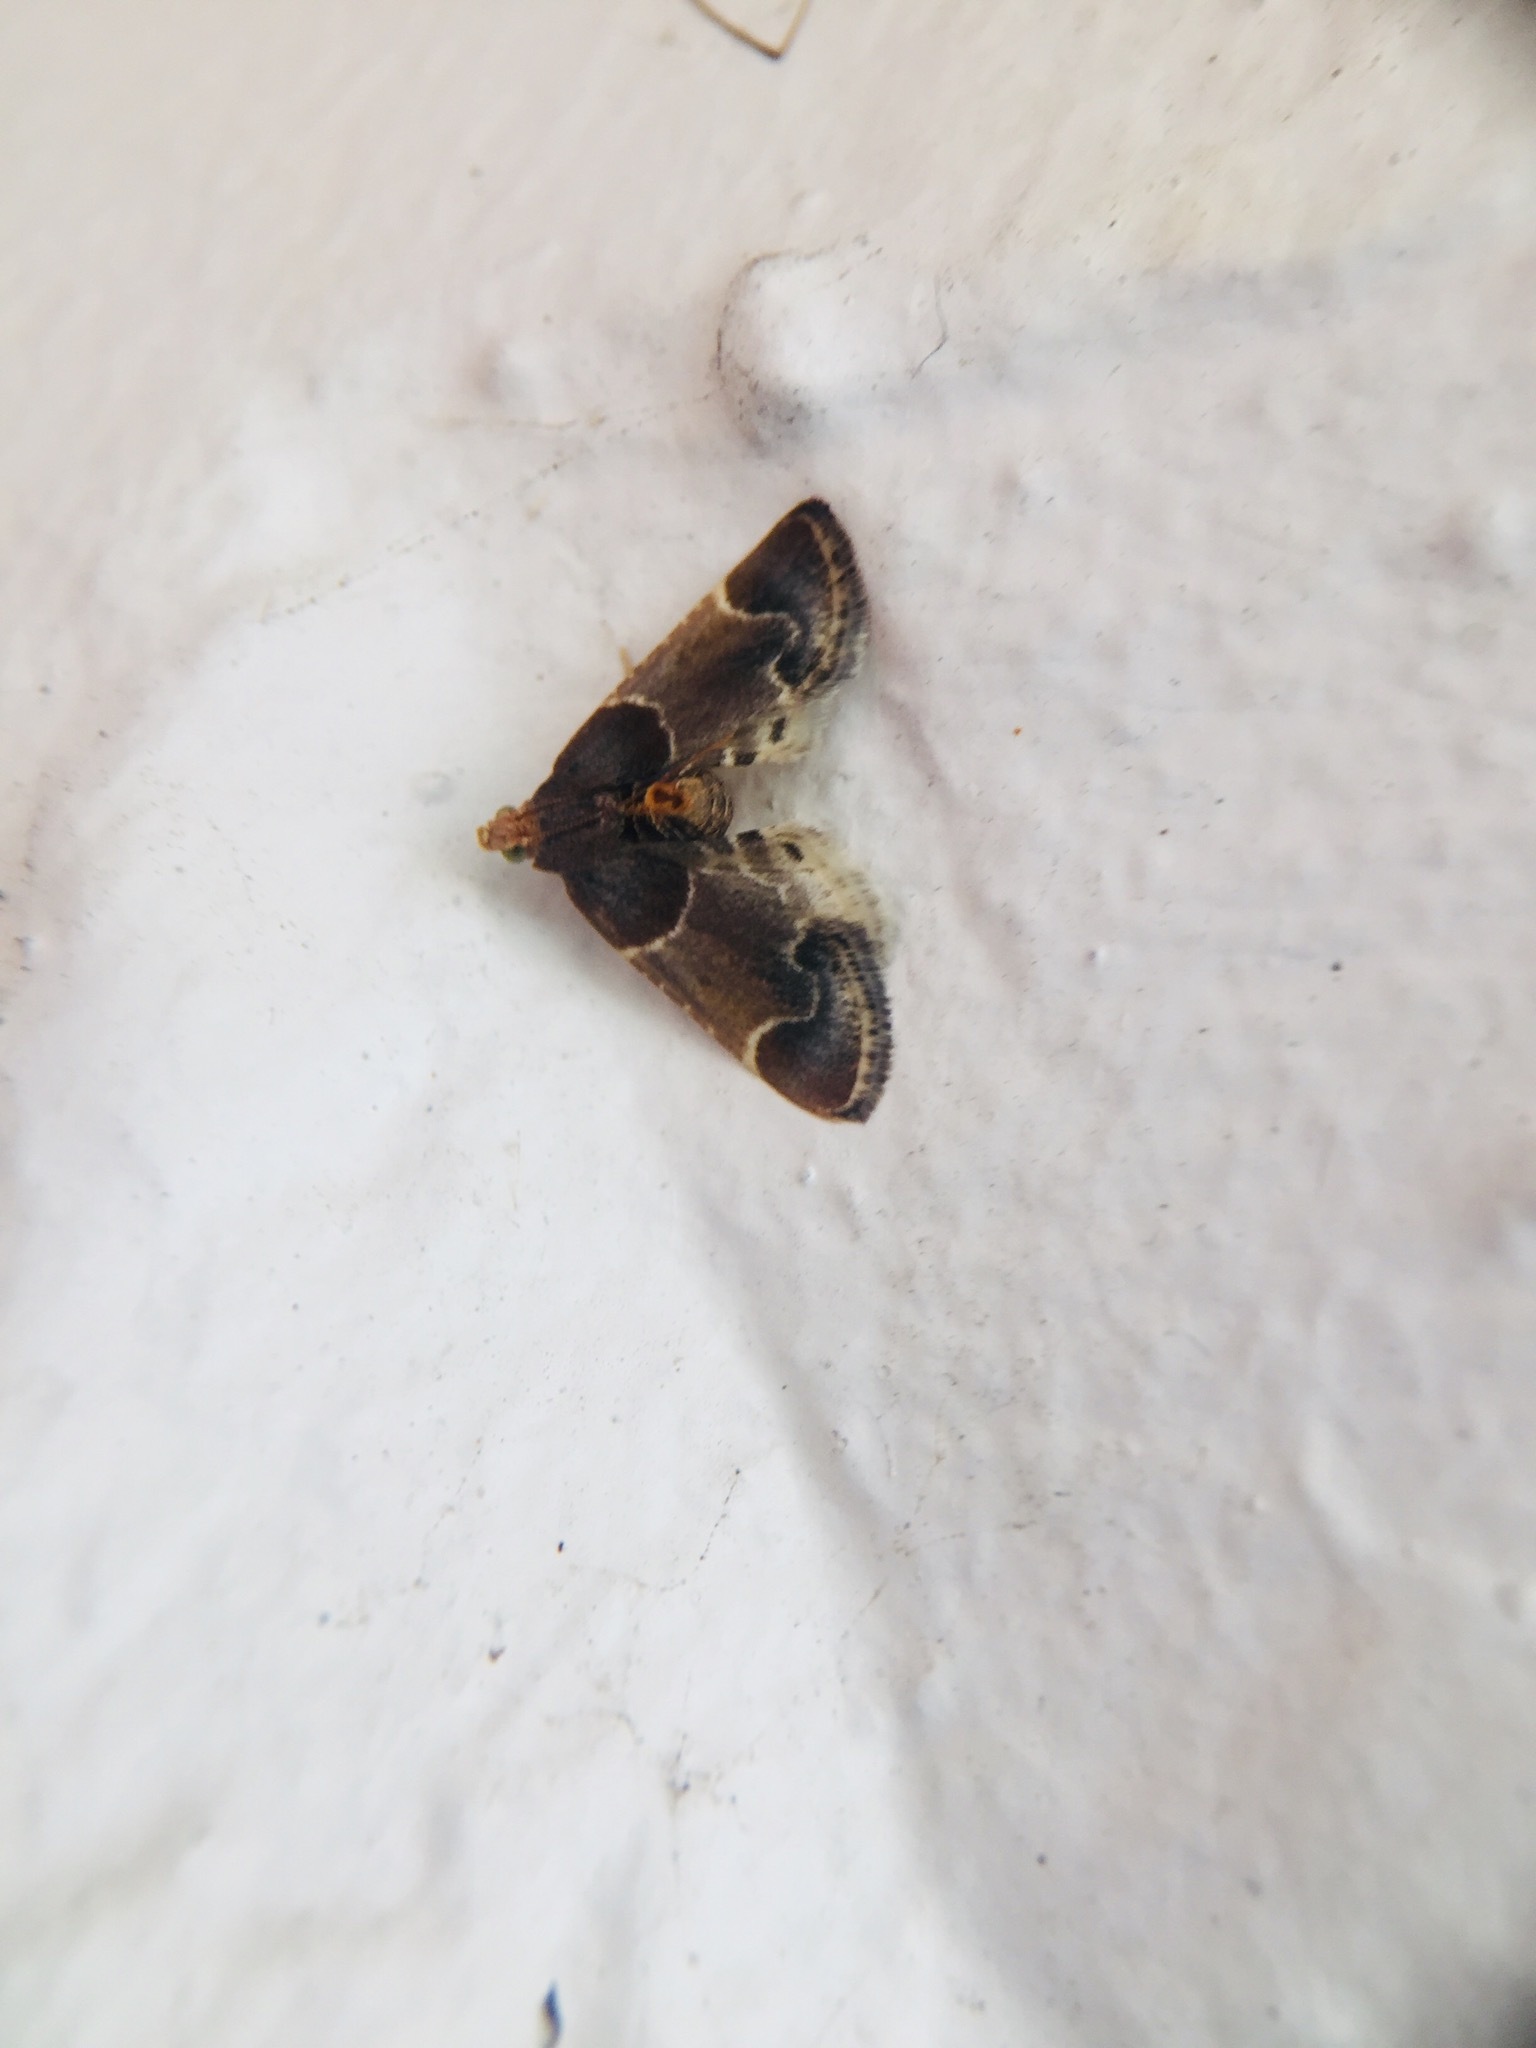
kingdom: Animalia
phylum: Arthropoda
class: Insecta
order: Lepidoptera
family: Pyralidae
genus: Pyralis
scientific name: Pyralis farinalis
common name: Meal moth
